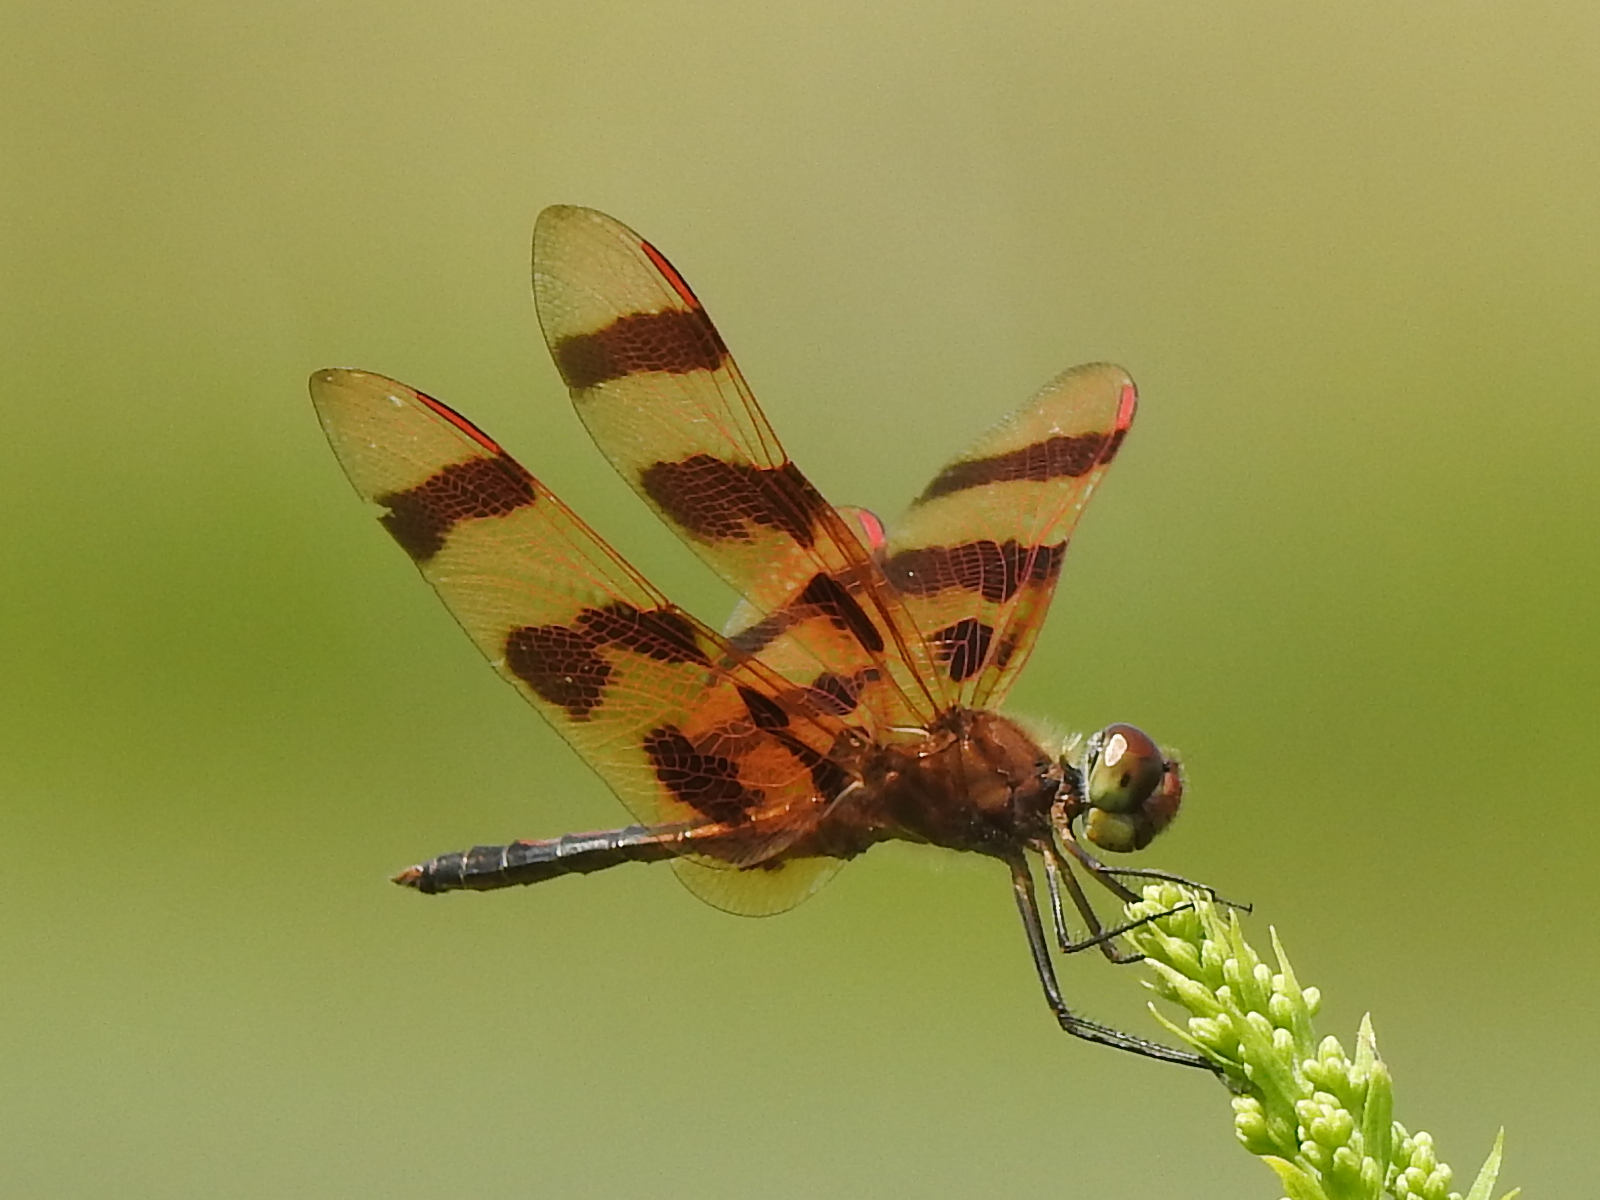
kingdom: Animalia
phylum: Arthropoda
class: Insecta
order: Odonata
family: Libellulidae
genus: Celithemis
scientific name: Celithemis eponina
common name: Halloween pennant
